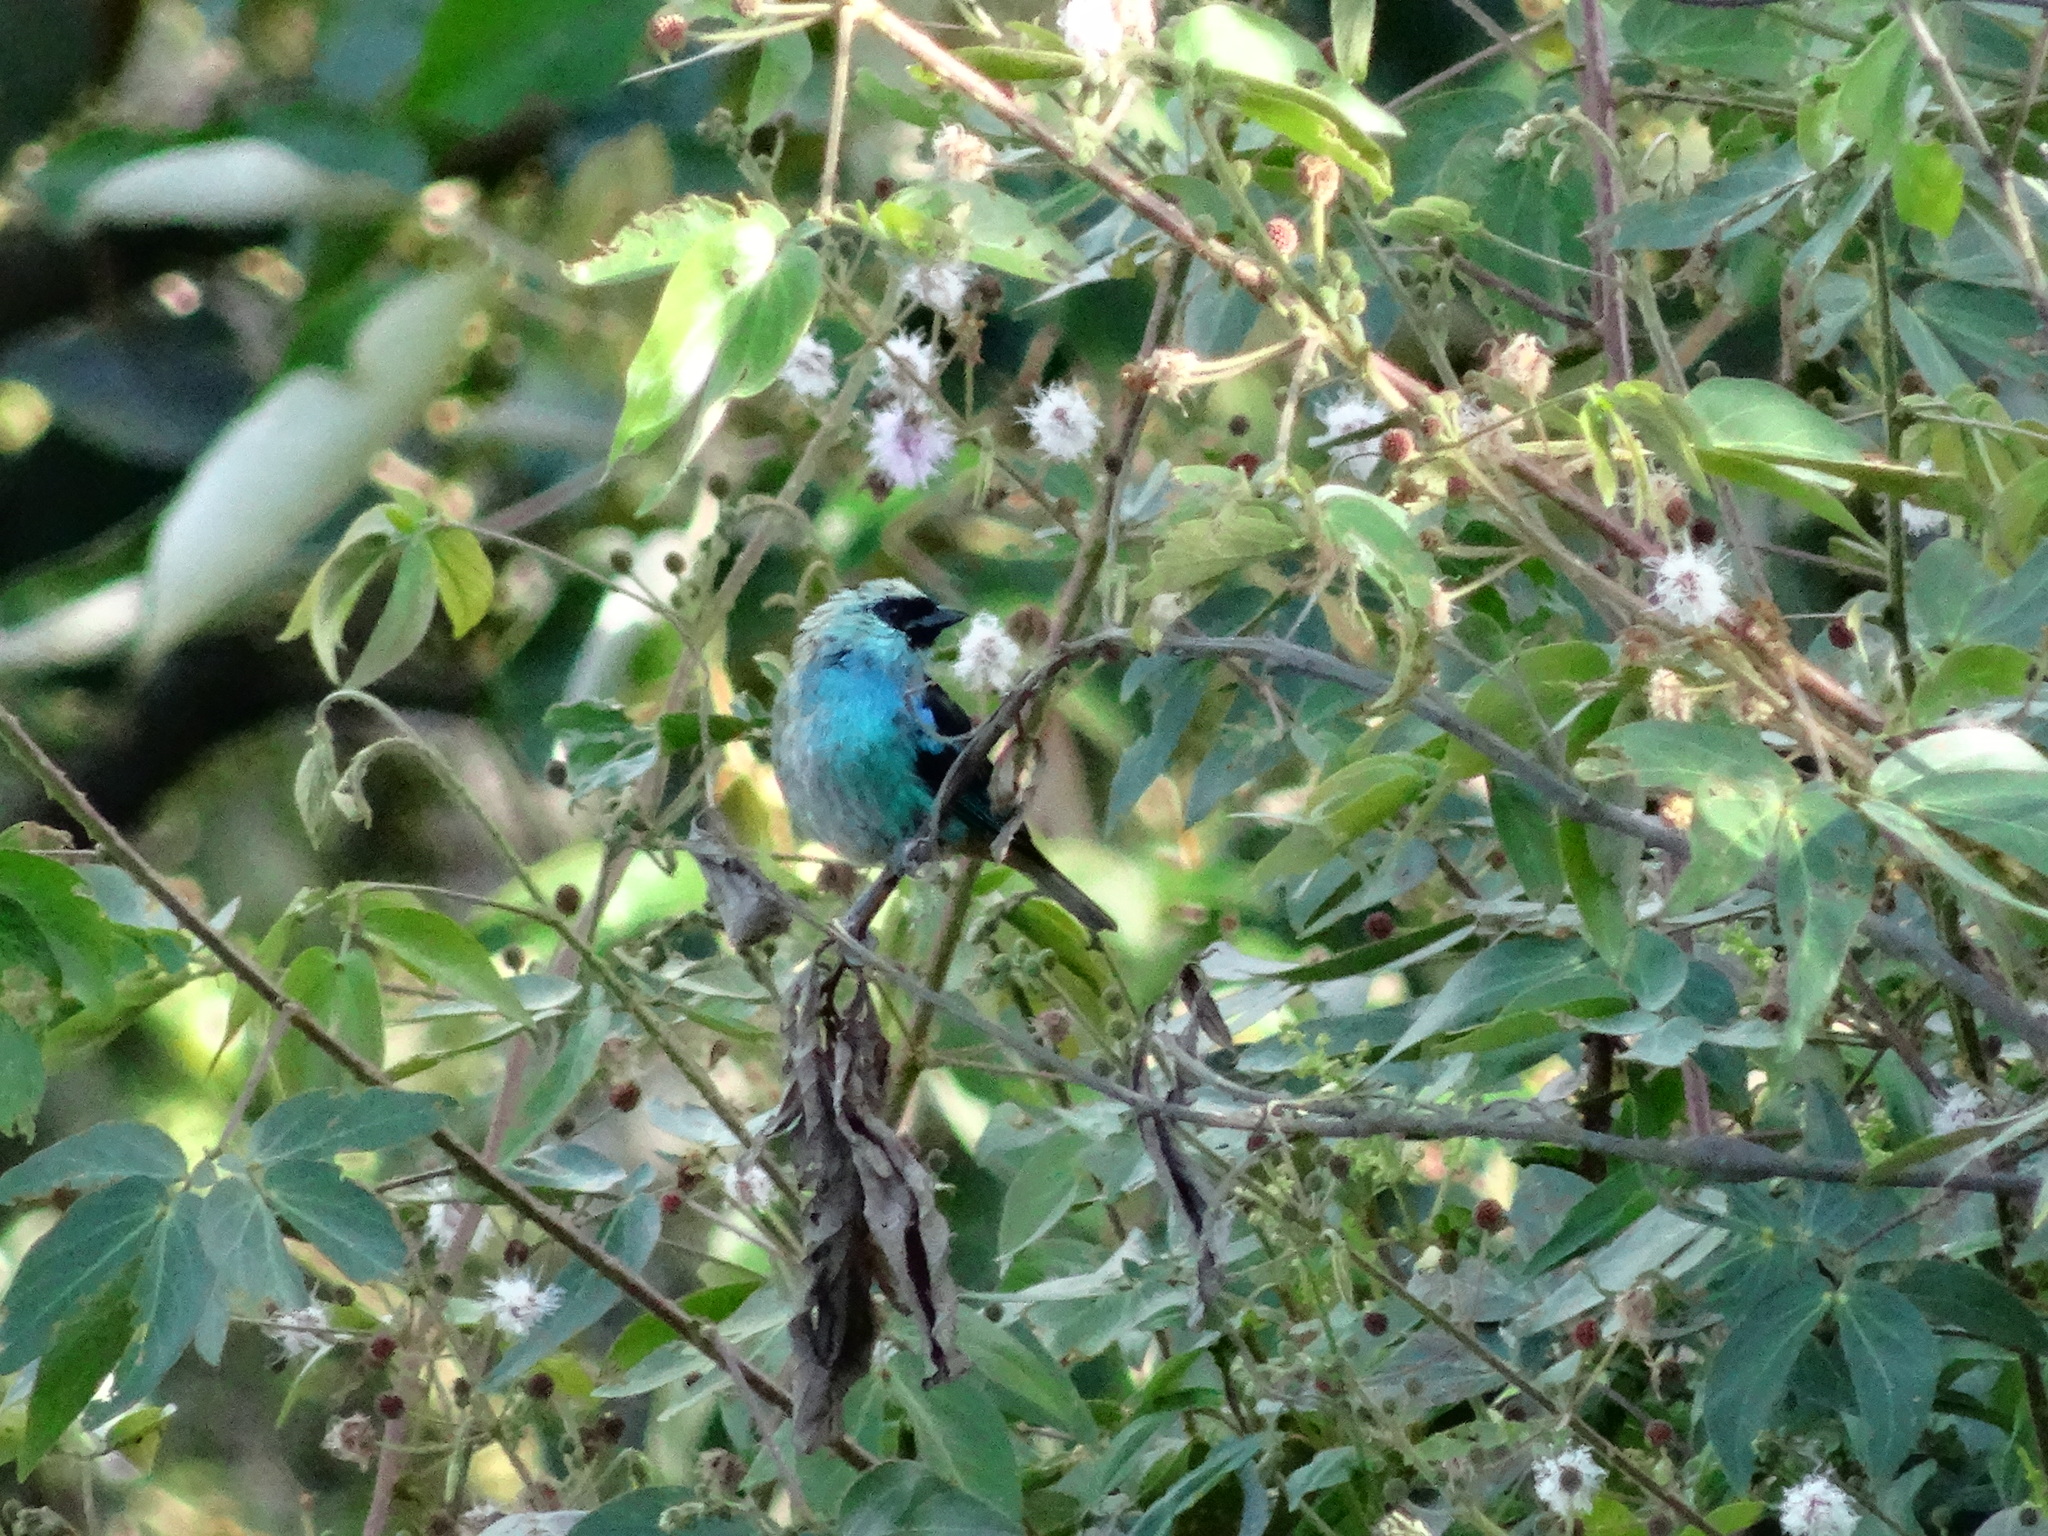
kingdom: Animalia
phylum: Chordata
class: Aves
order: Passeriformes
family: Thraupidae
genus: Tangara
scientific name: Tangara labradorides
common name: Metallic-green tanager
